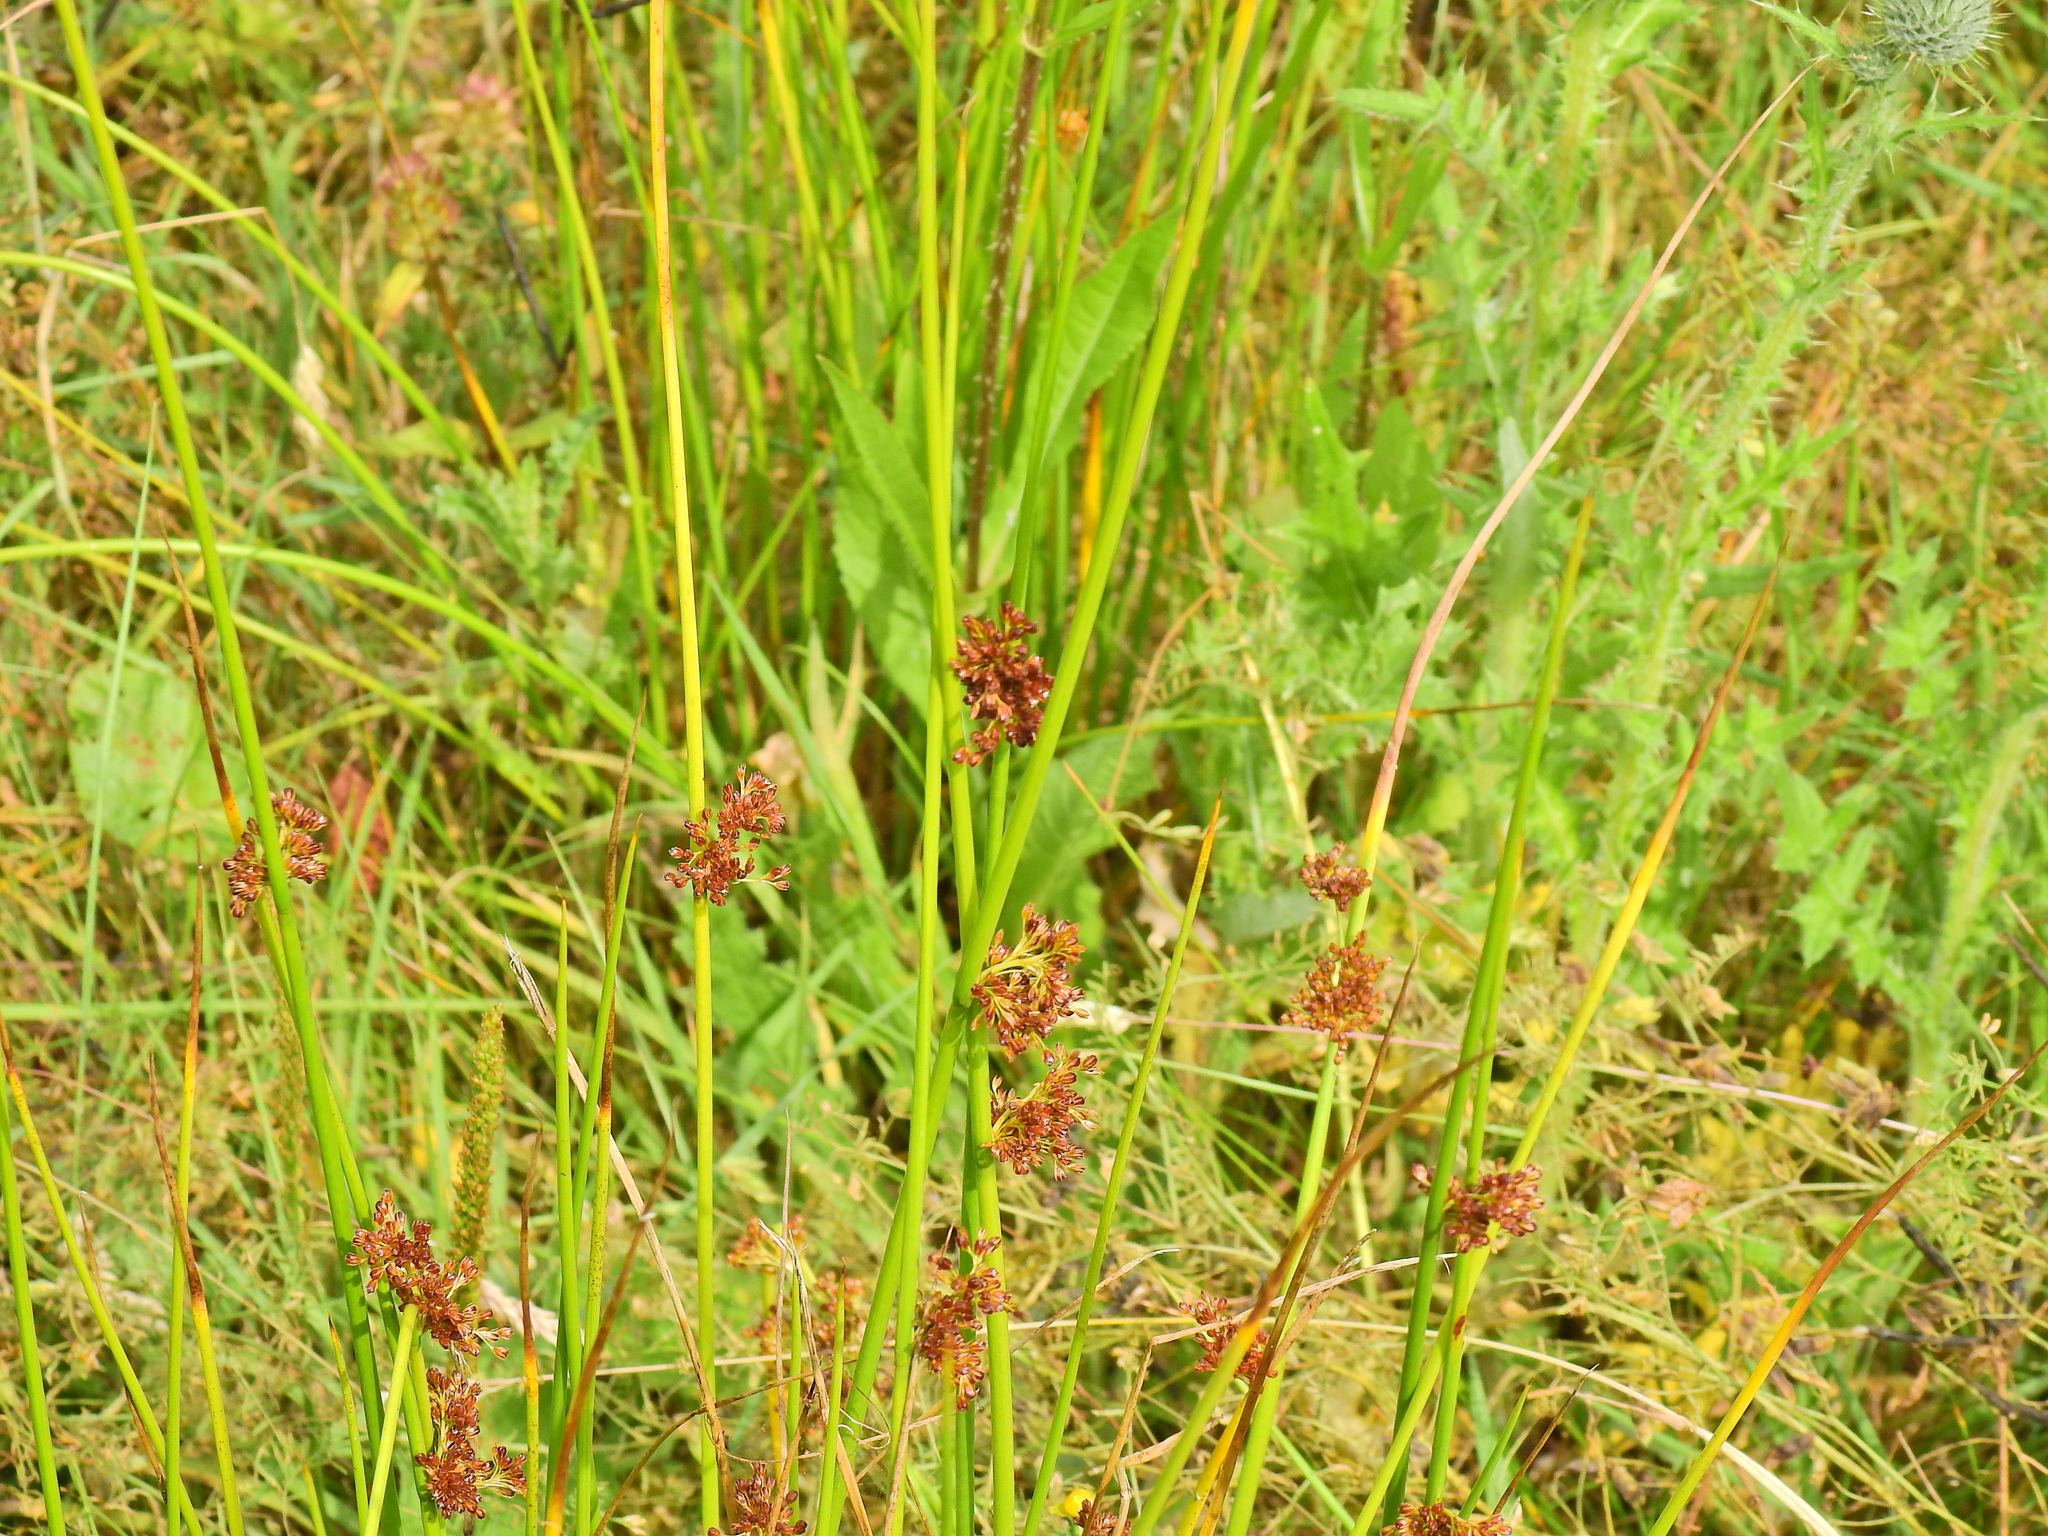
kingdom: Plantae
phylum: Tracheophyta
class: Liliopsida
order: Poales
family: Juncaceae
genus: Juncus
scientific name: Juncus effusus
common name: Soft rush
